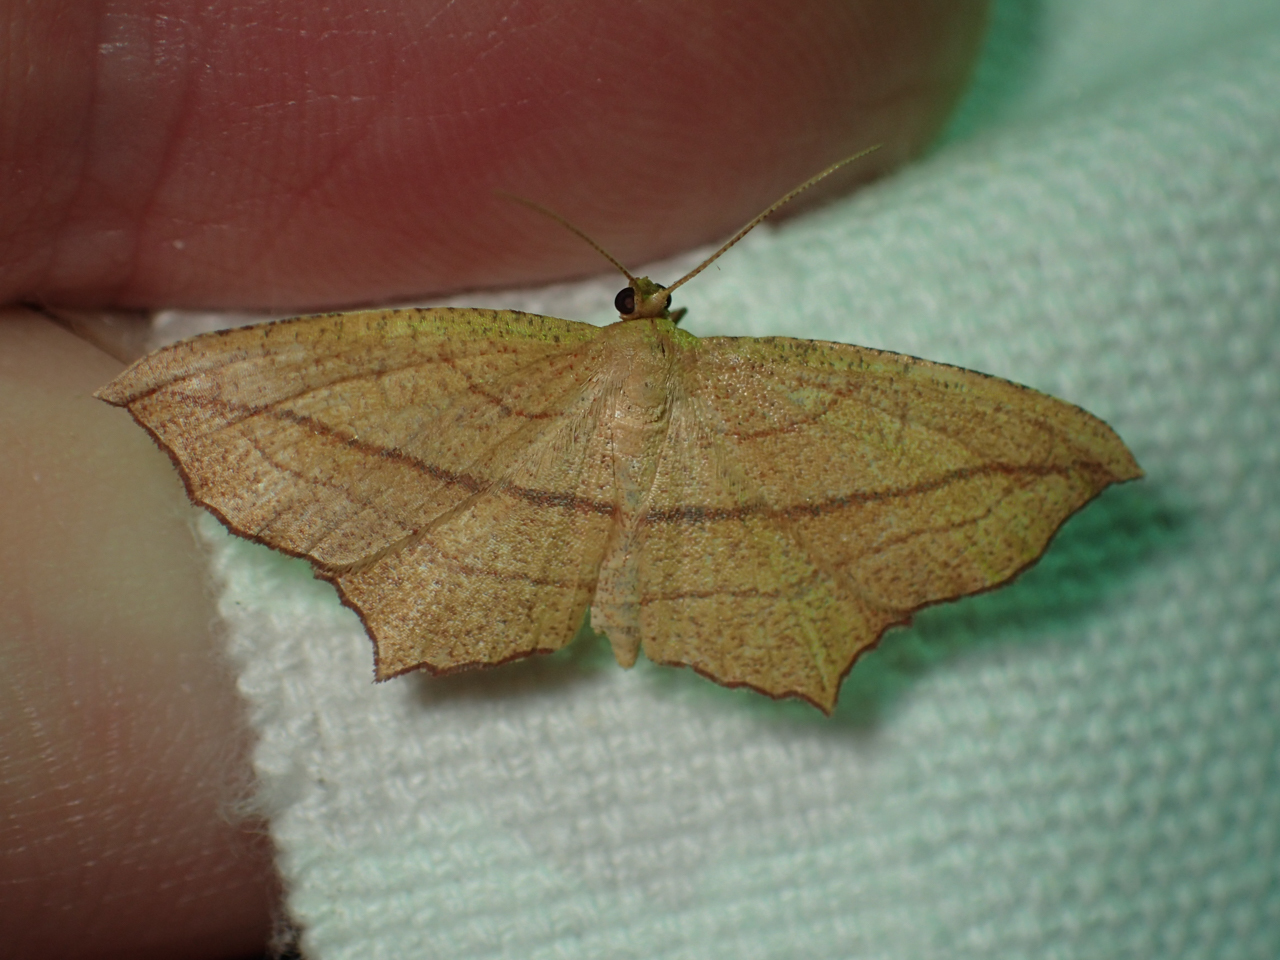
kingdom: Animalia
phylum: Arthropoda
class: Insecta
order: Lepidoptera
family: Geometridae
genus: Timandra
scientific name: Timandra amaturaria
